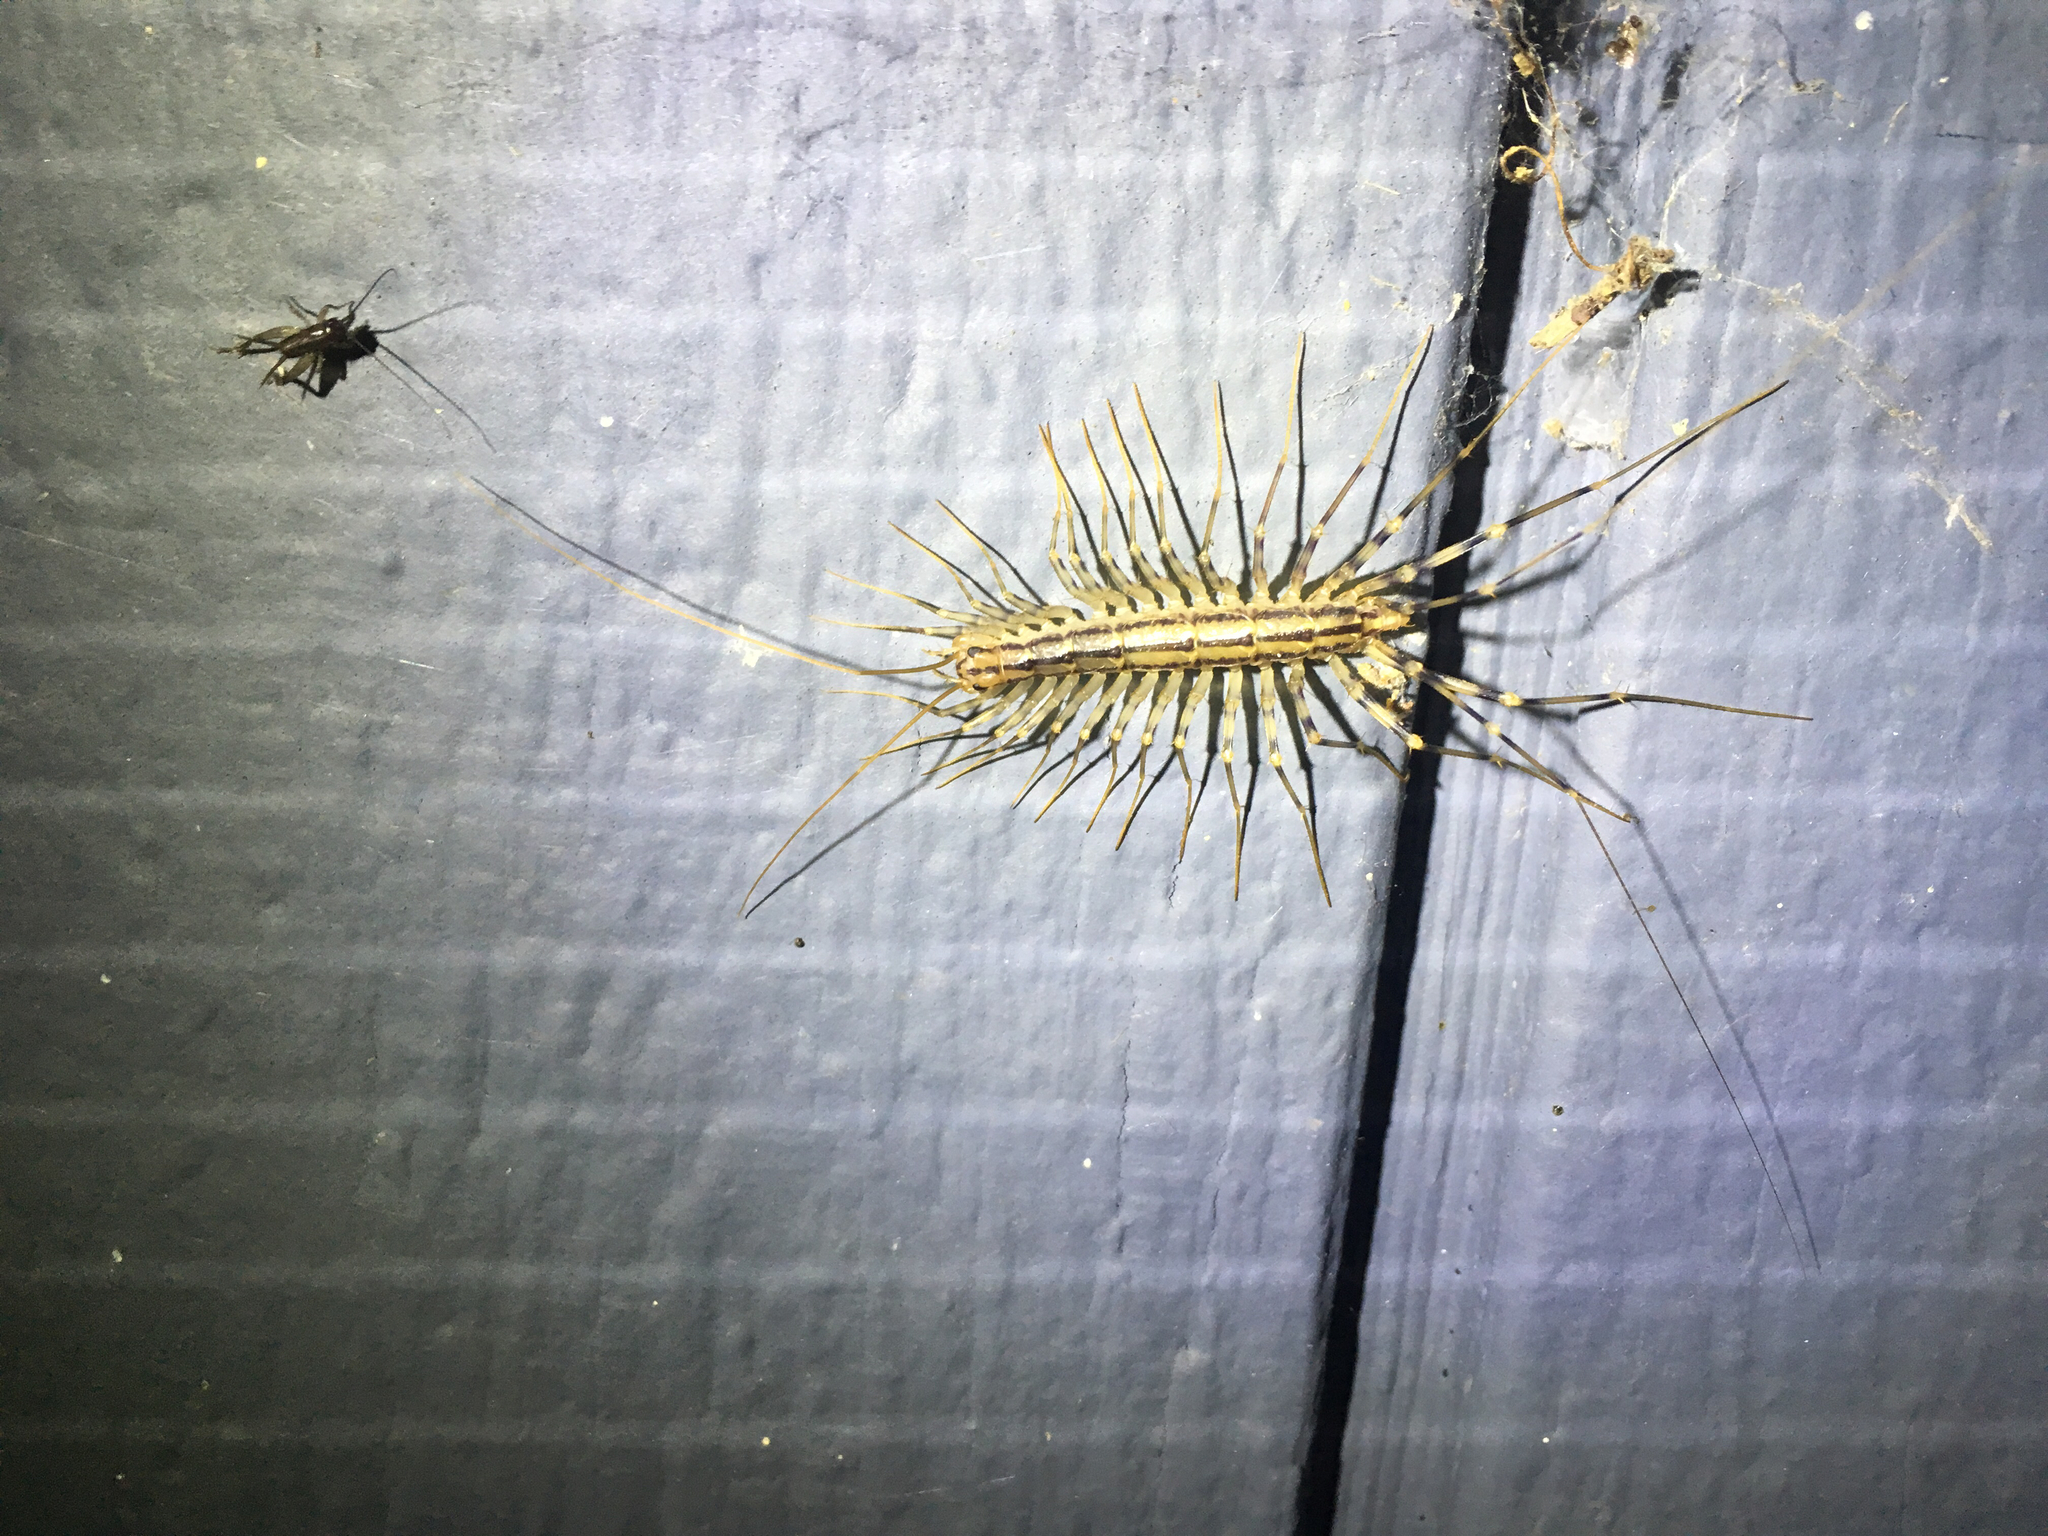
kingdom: Animalia
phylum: Arthropoda
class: Chilopoda
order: Scutigeromorpha
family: Scutigeridae
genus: Scutigera
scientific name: Scutigera coleoptrata
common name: House centipede
